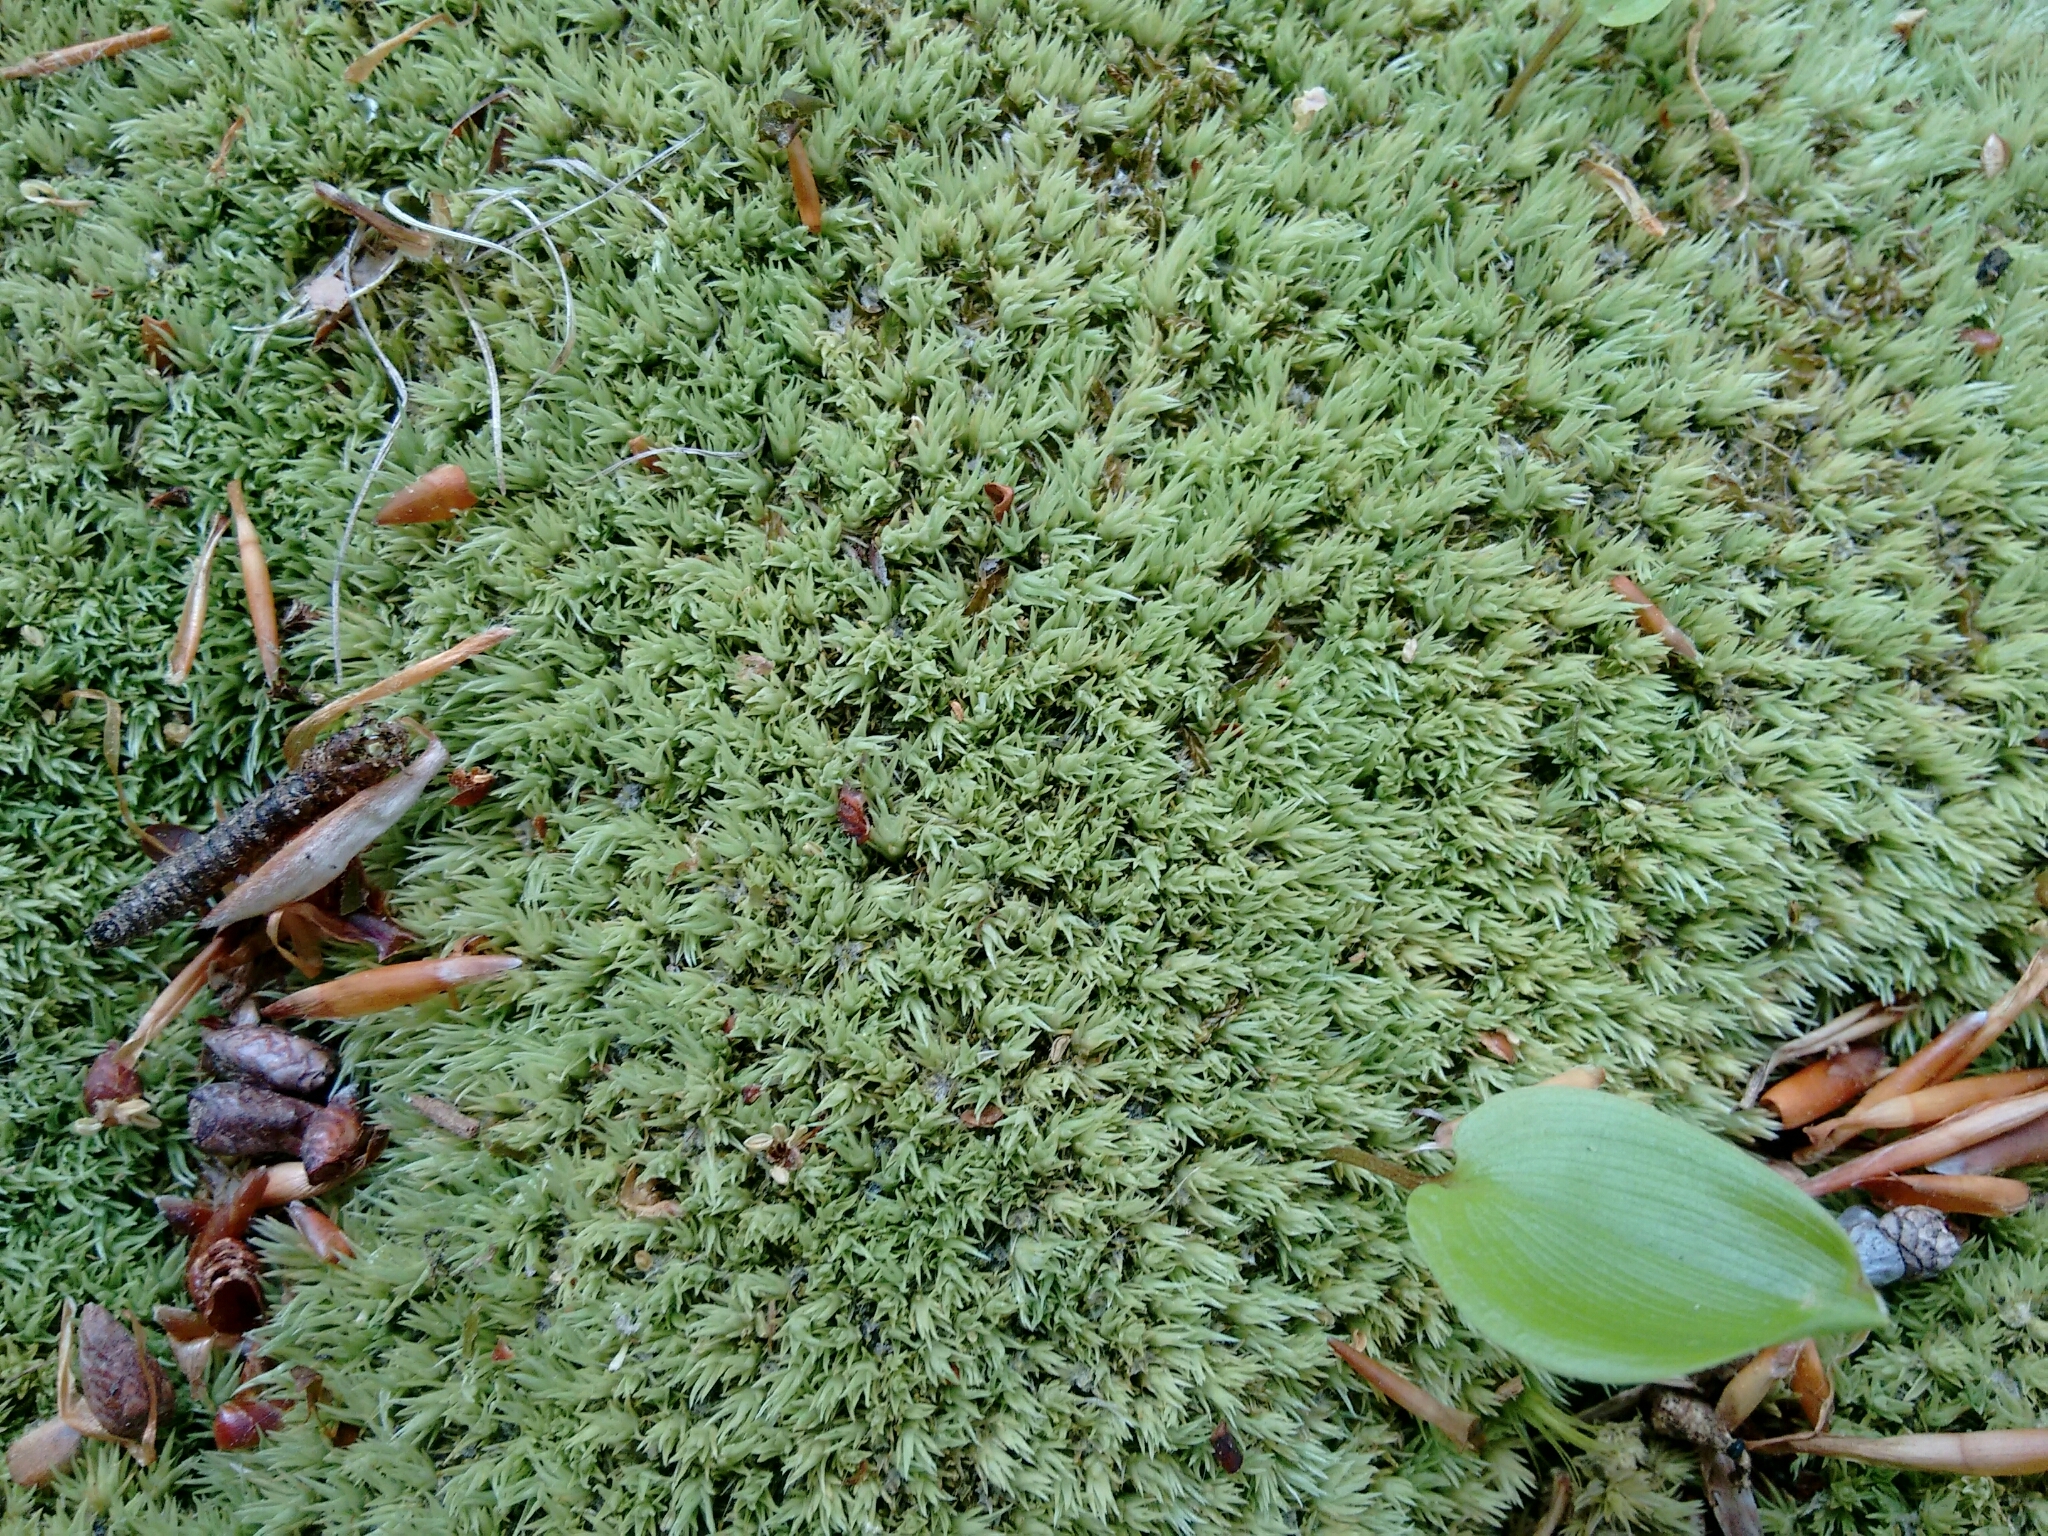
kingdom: Plantae
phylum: Bryophyta
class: Bryopsida
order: Dicranales
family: Leucobryaceae
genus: Leucobryum
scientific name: Leucobryum albidum
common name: White moss
